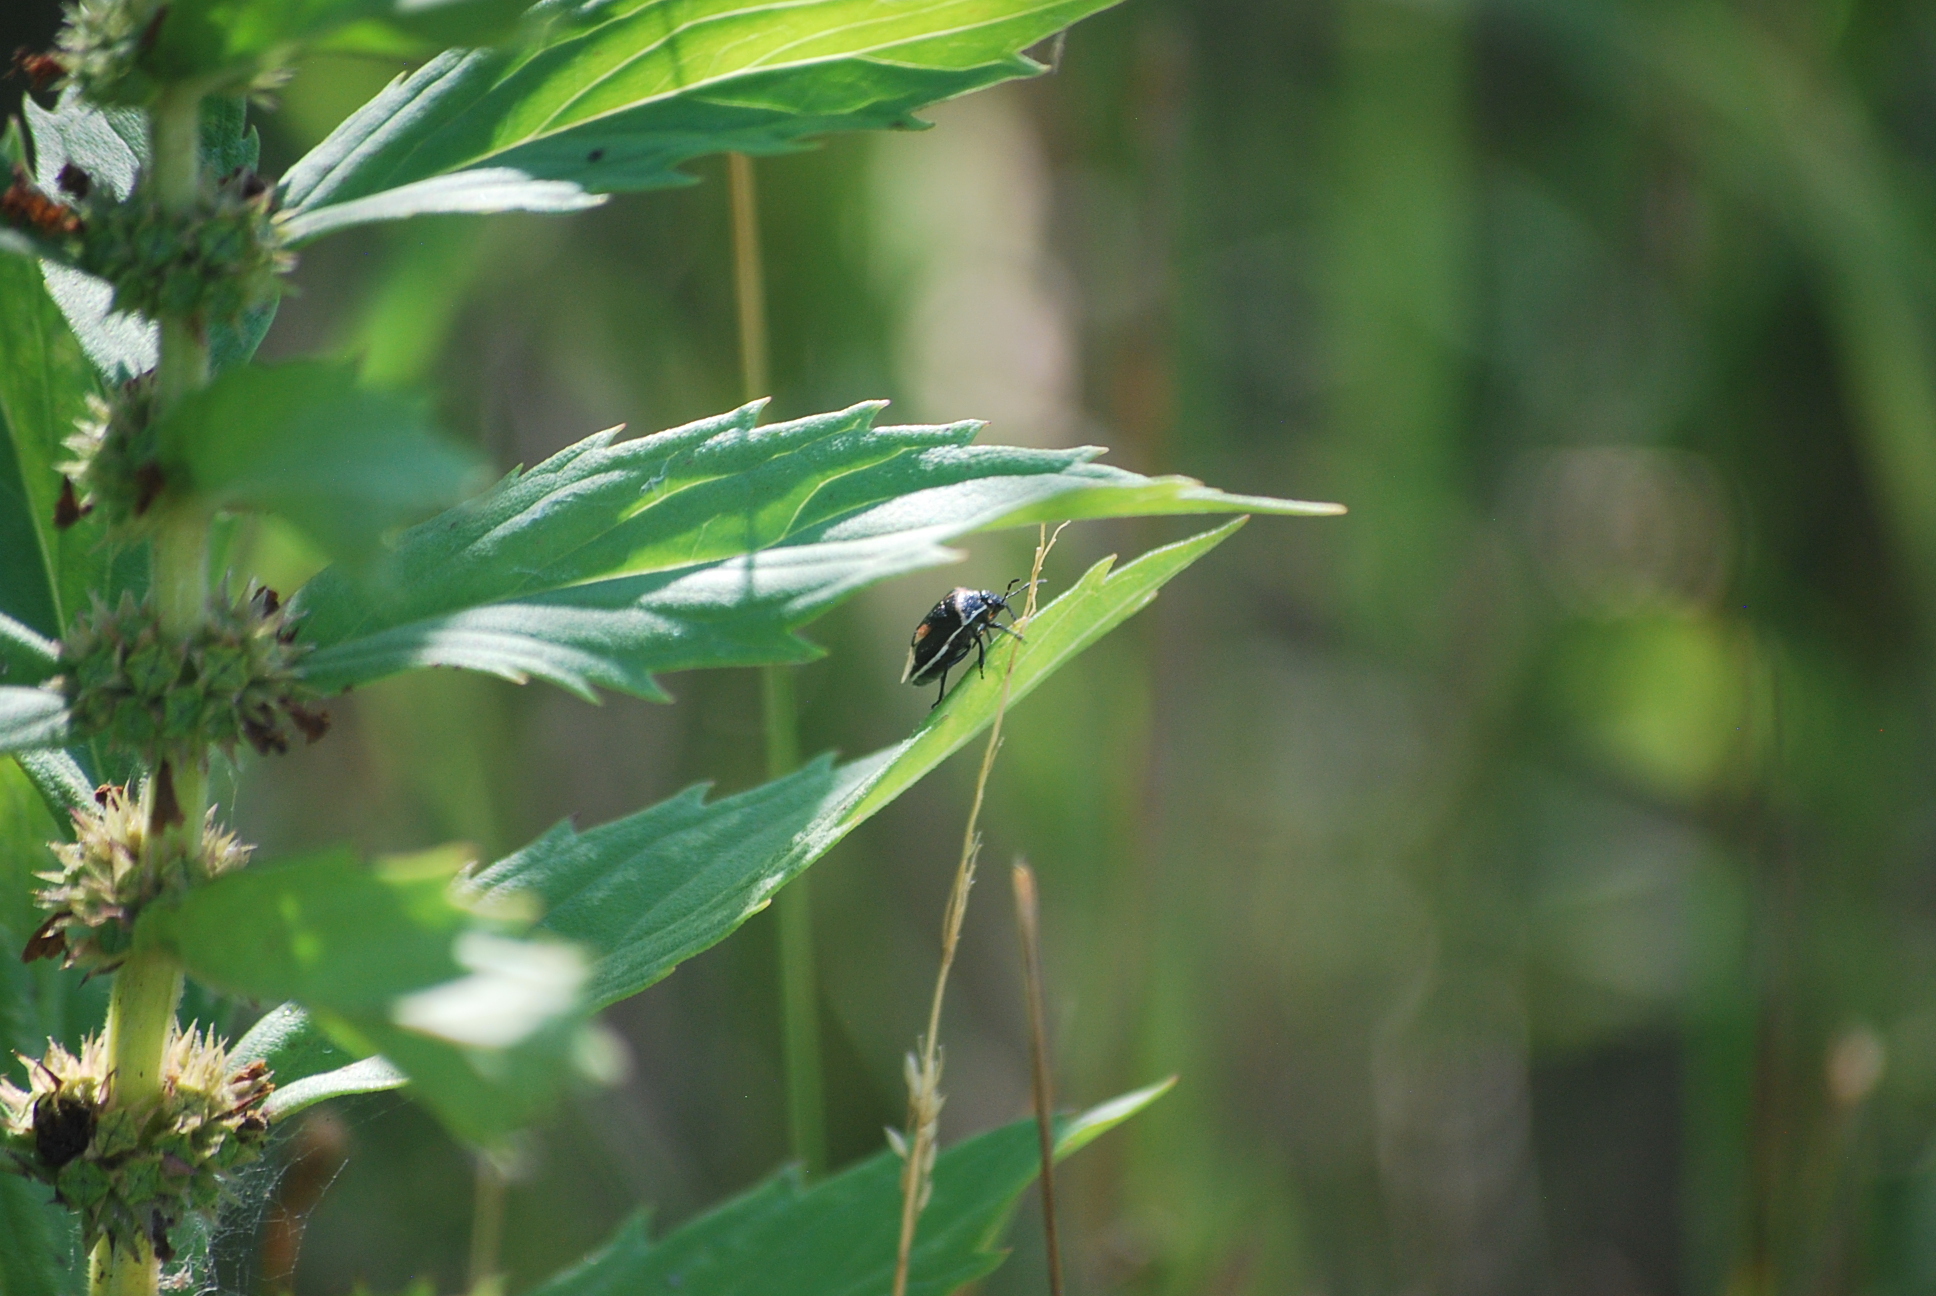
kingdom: Animalia
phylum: Arthropoda
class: Insecta
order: Hemiptera
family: Pentatomidae
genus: Cosmopepla
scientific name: Cosmopepla lintneriana
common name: Twice-stabbed stink bug
